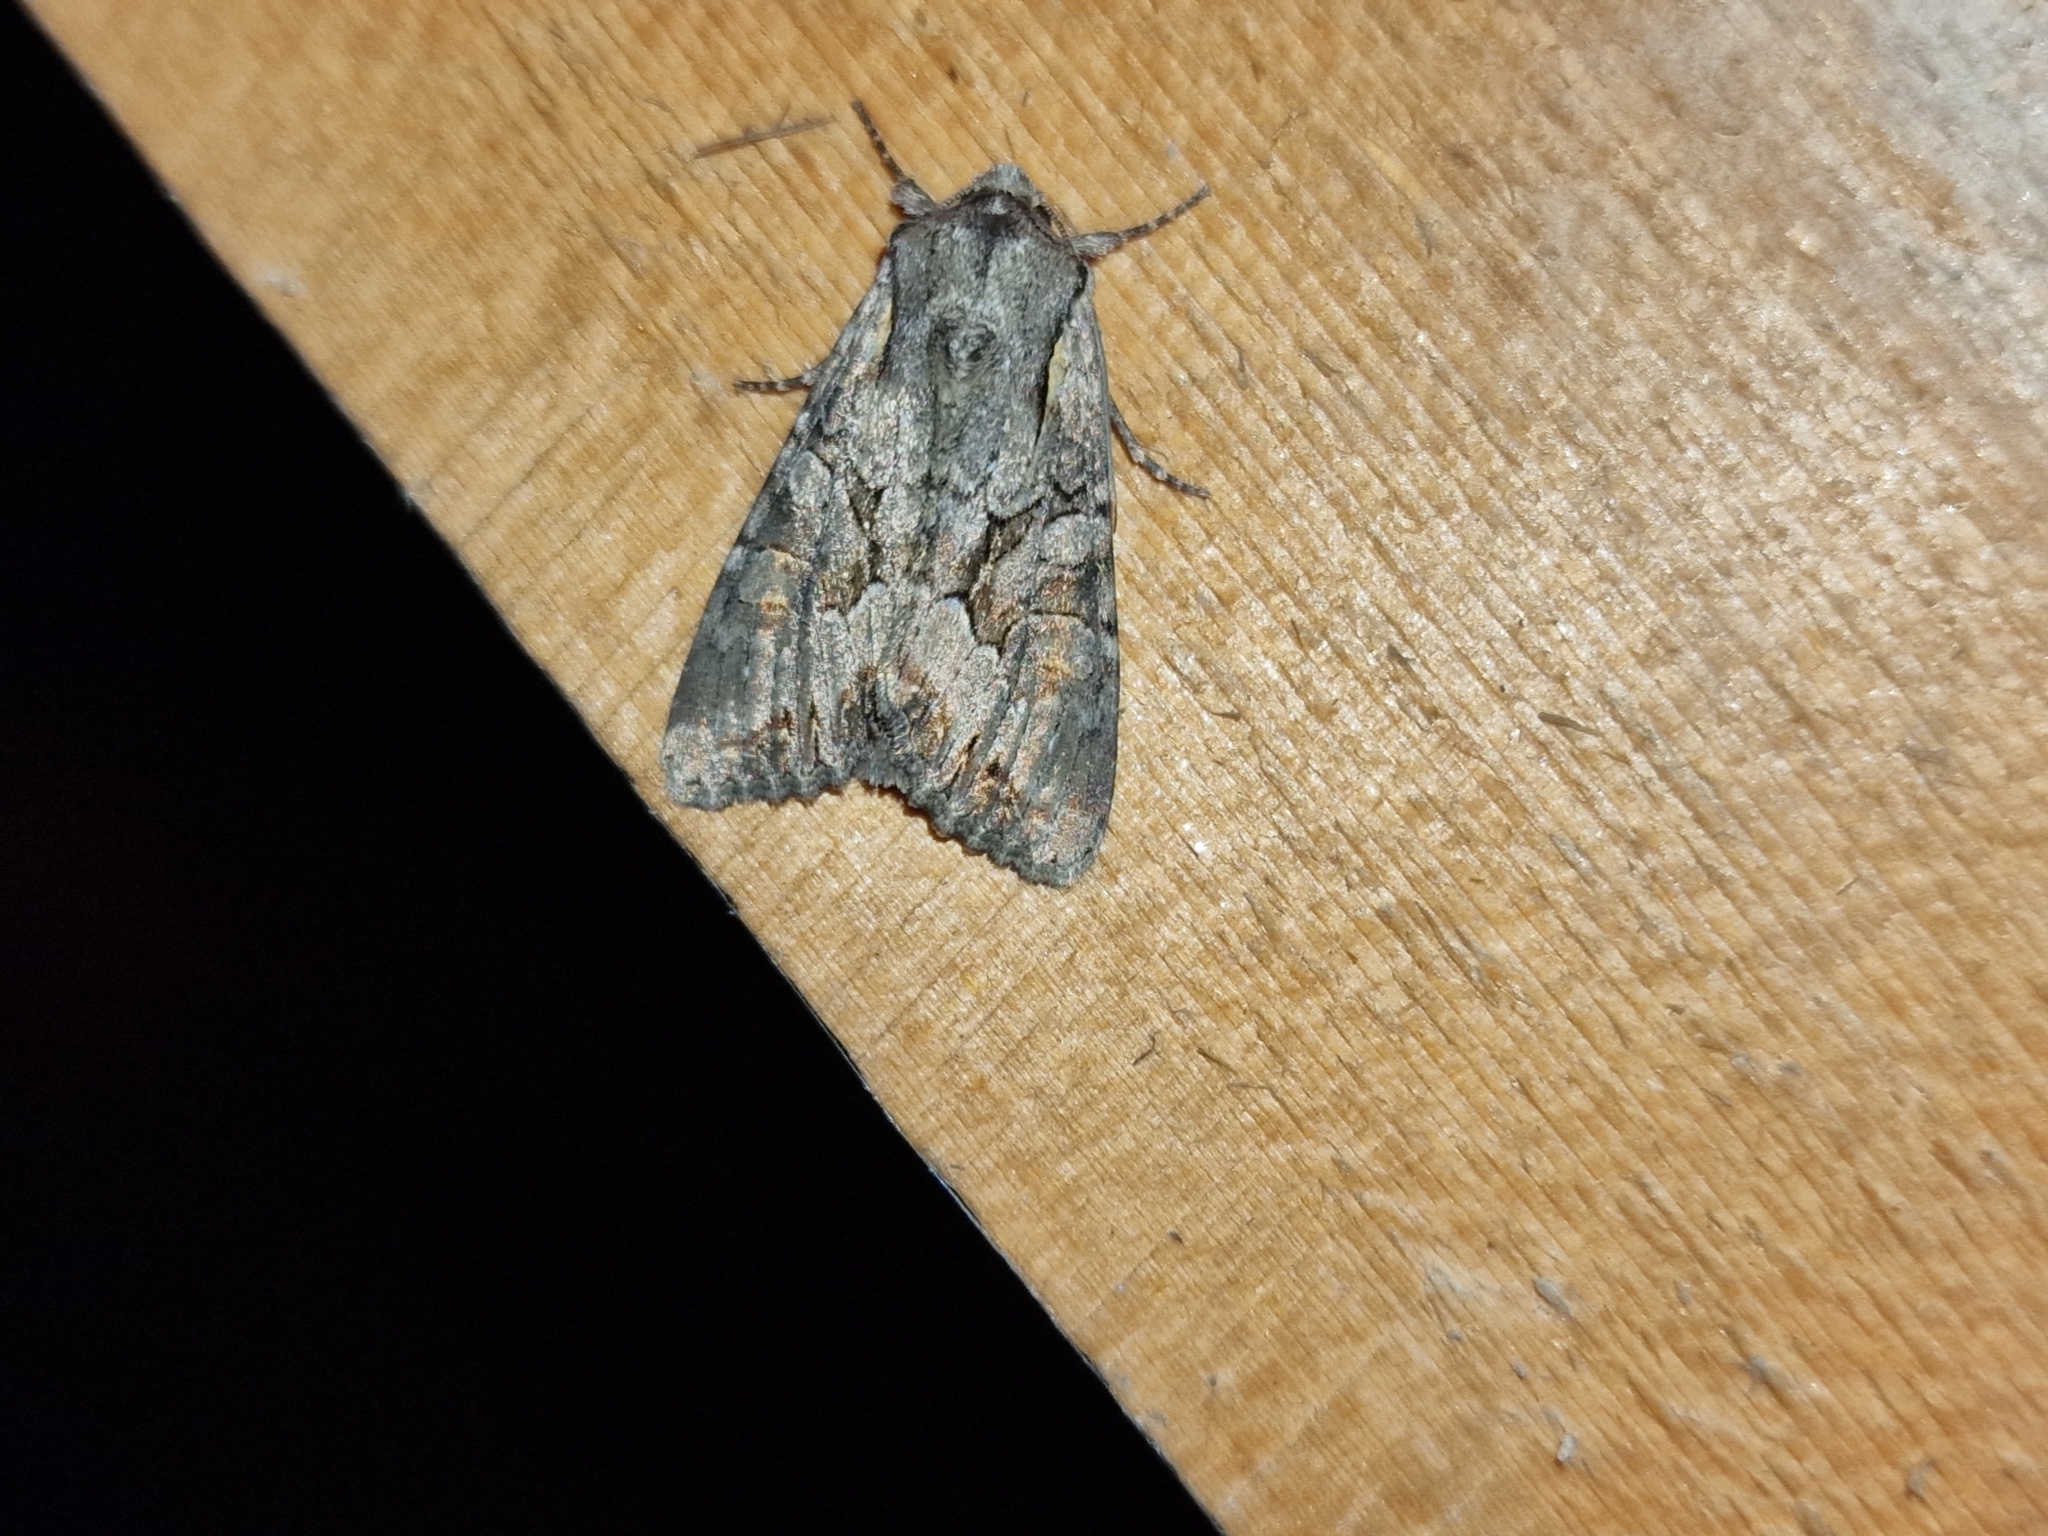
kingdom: Animalia
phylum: Arthropoda
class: Insecta
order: Lepidoptera
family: Noctuidae
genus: Lacanobia
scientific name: Lacanobia w-latinum
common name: Light brocade
